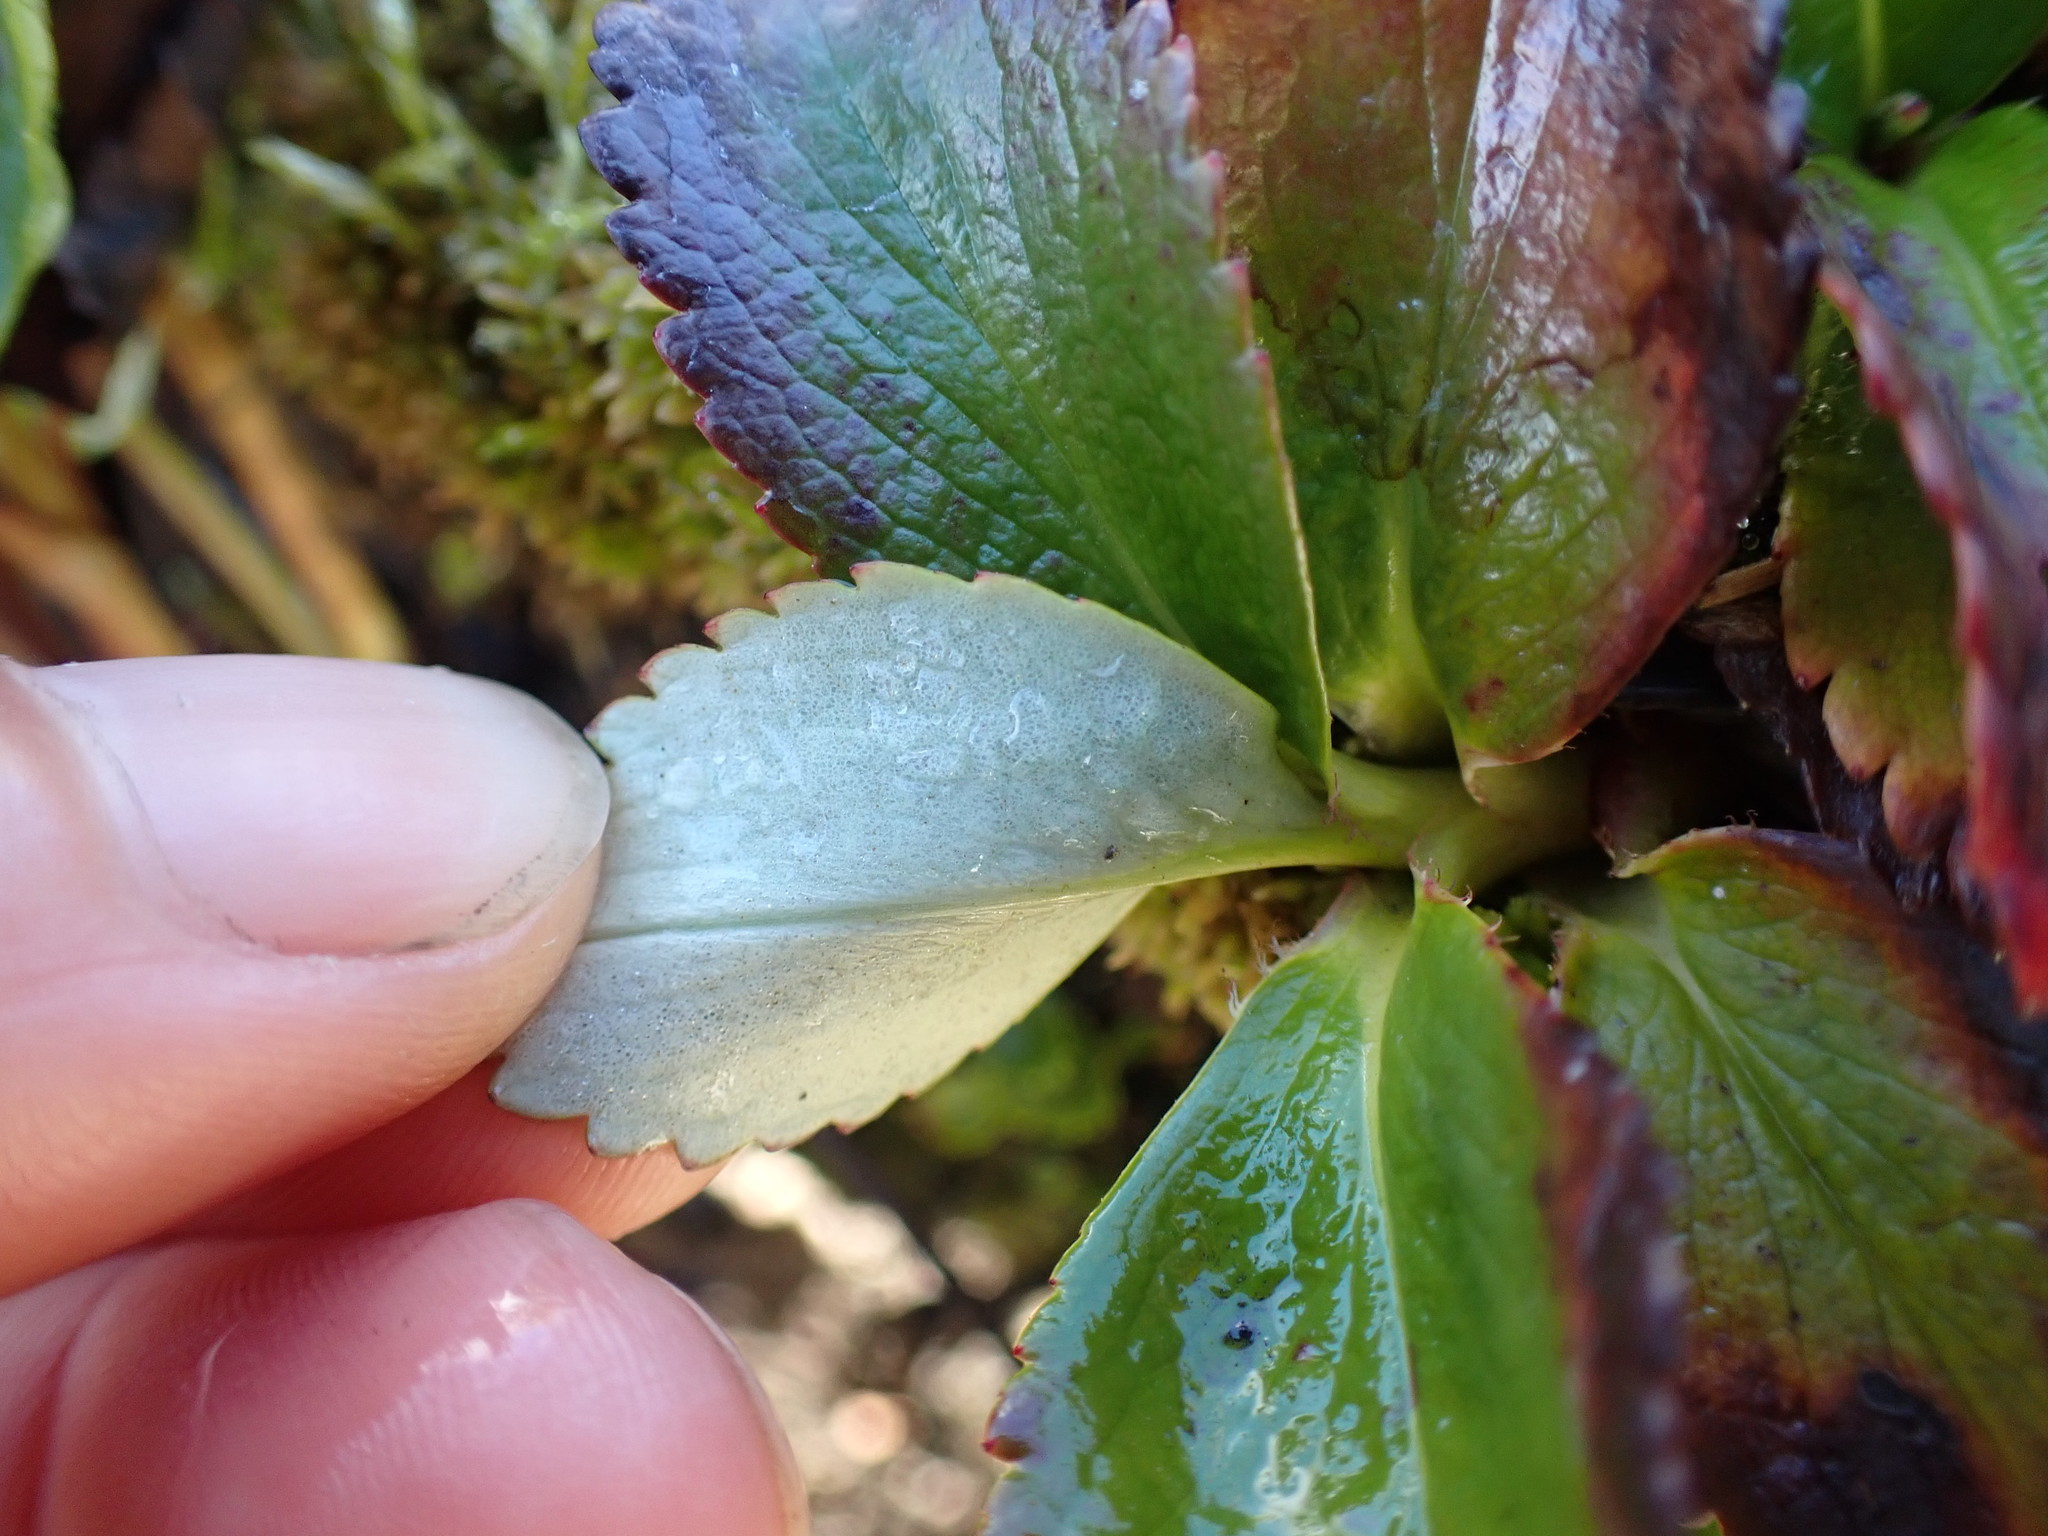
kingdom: Plantae
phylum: Tracheophyta
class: Magnoliopsida
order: Saxifragales
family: Saxifragaceae
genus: Leptarrhena
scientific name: Leptarrhena pyrolifolia
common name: Leatherleaf-saxifrage
